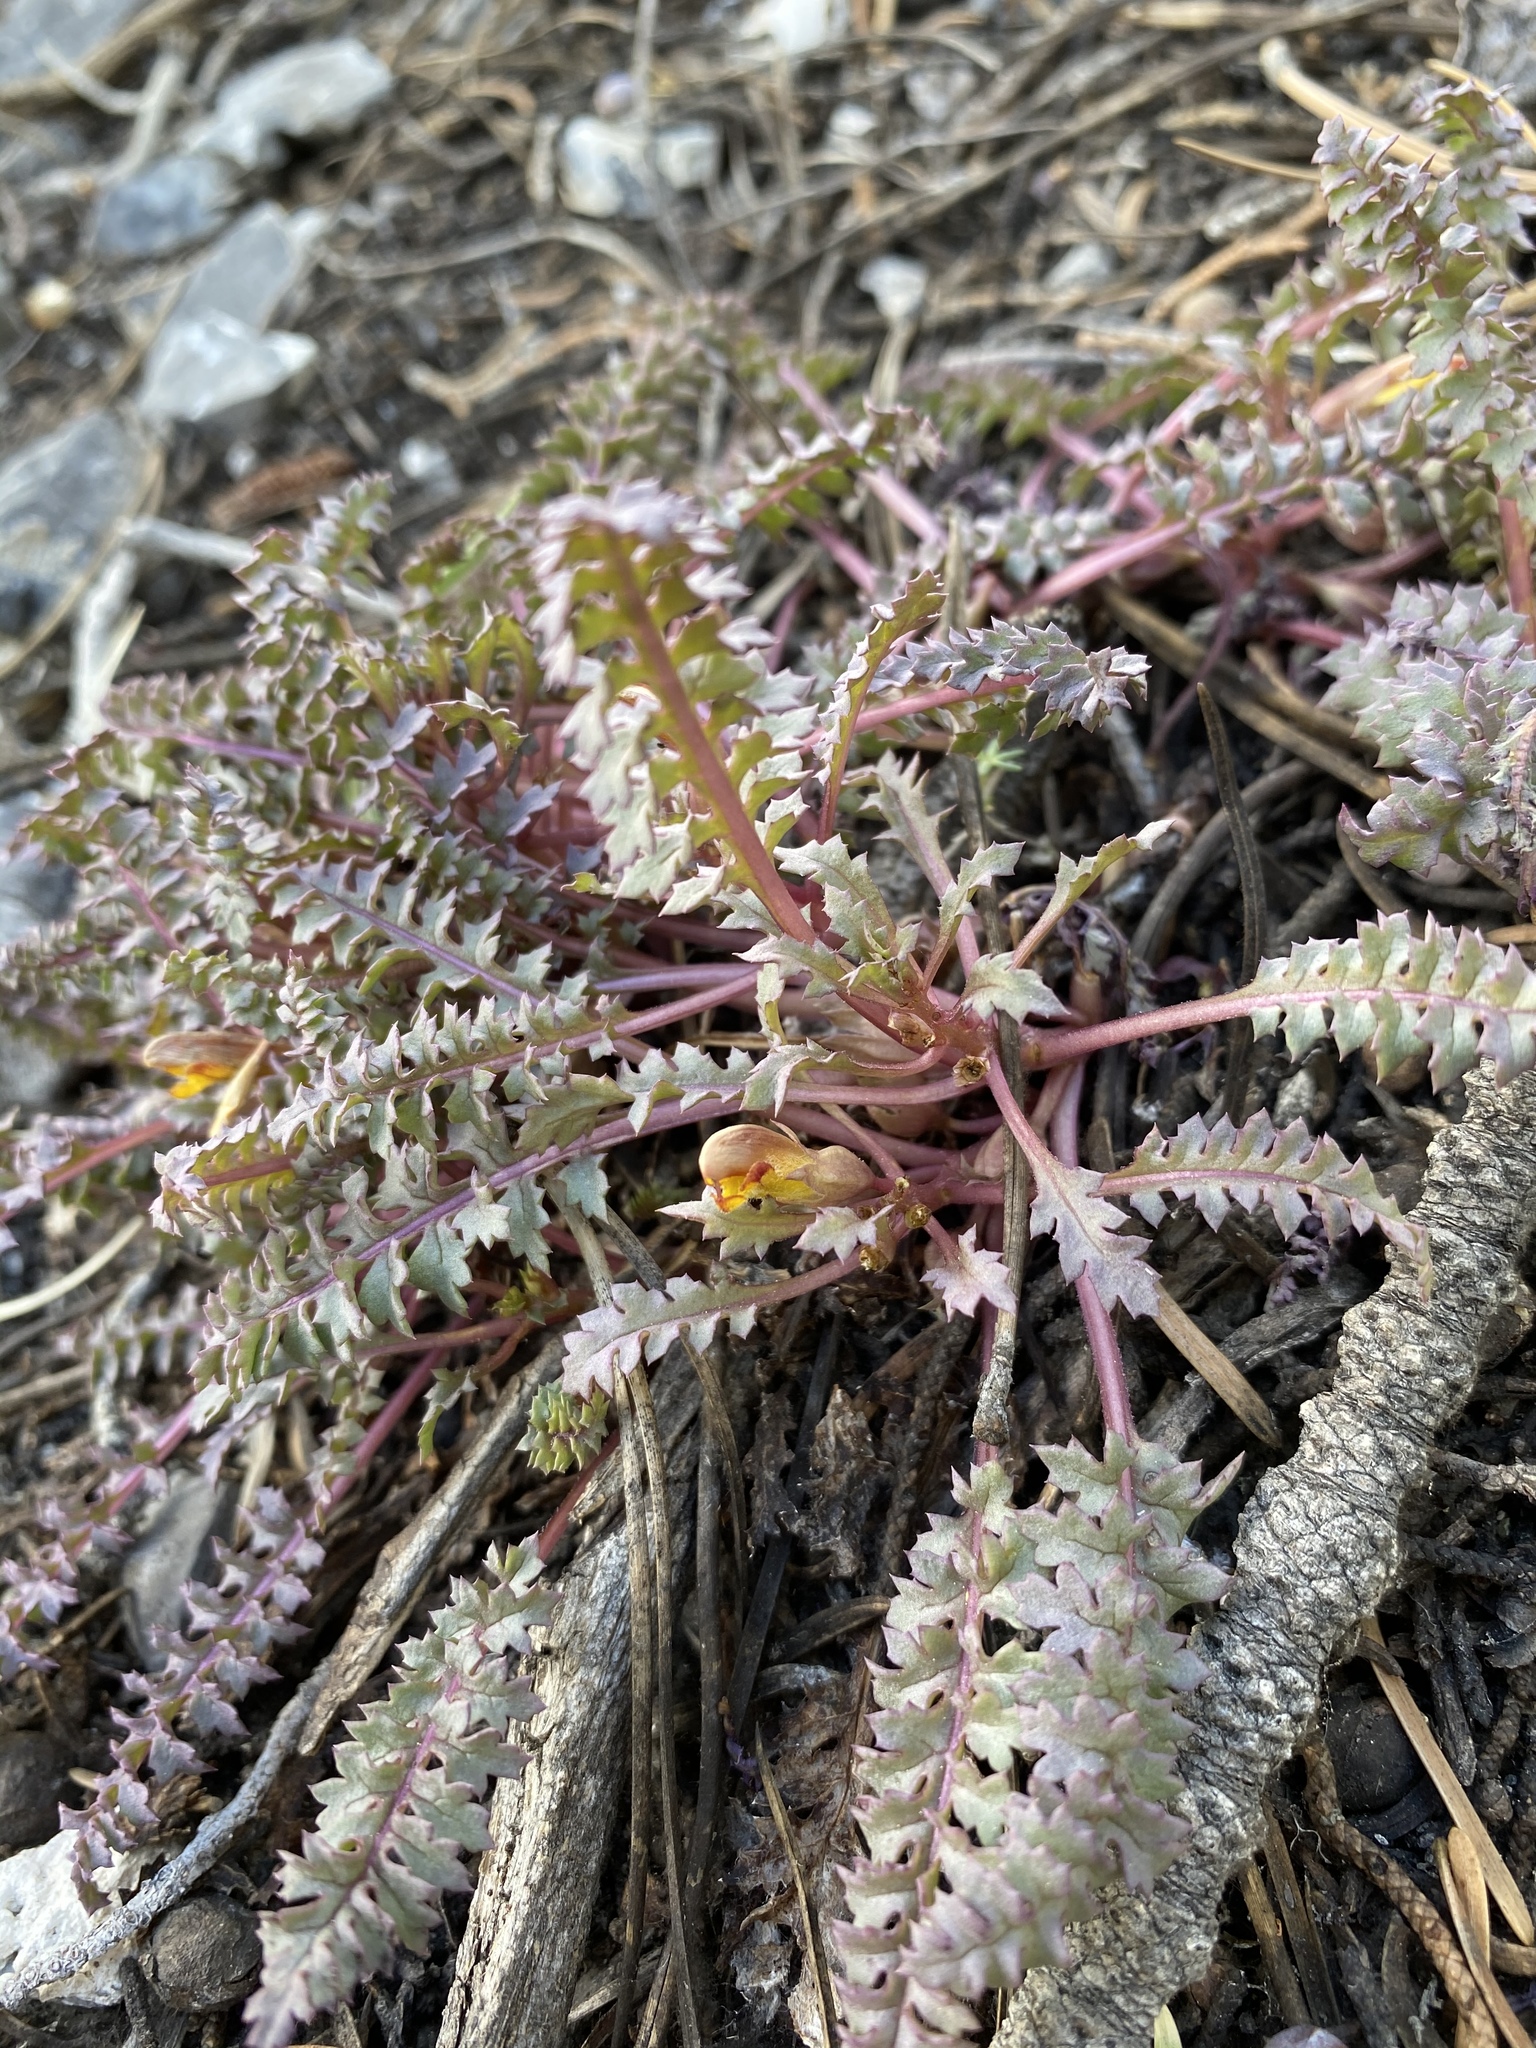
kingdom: Plantae
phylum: Tracheophyta
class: Magnoliopsida
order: Lamiales
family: Orobanchaceae
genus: Pedicularis
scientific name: Pedicularis semibarbata
